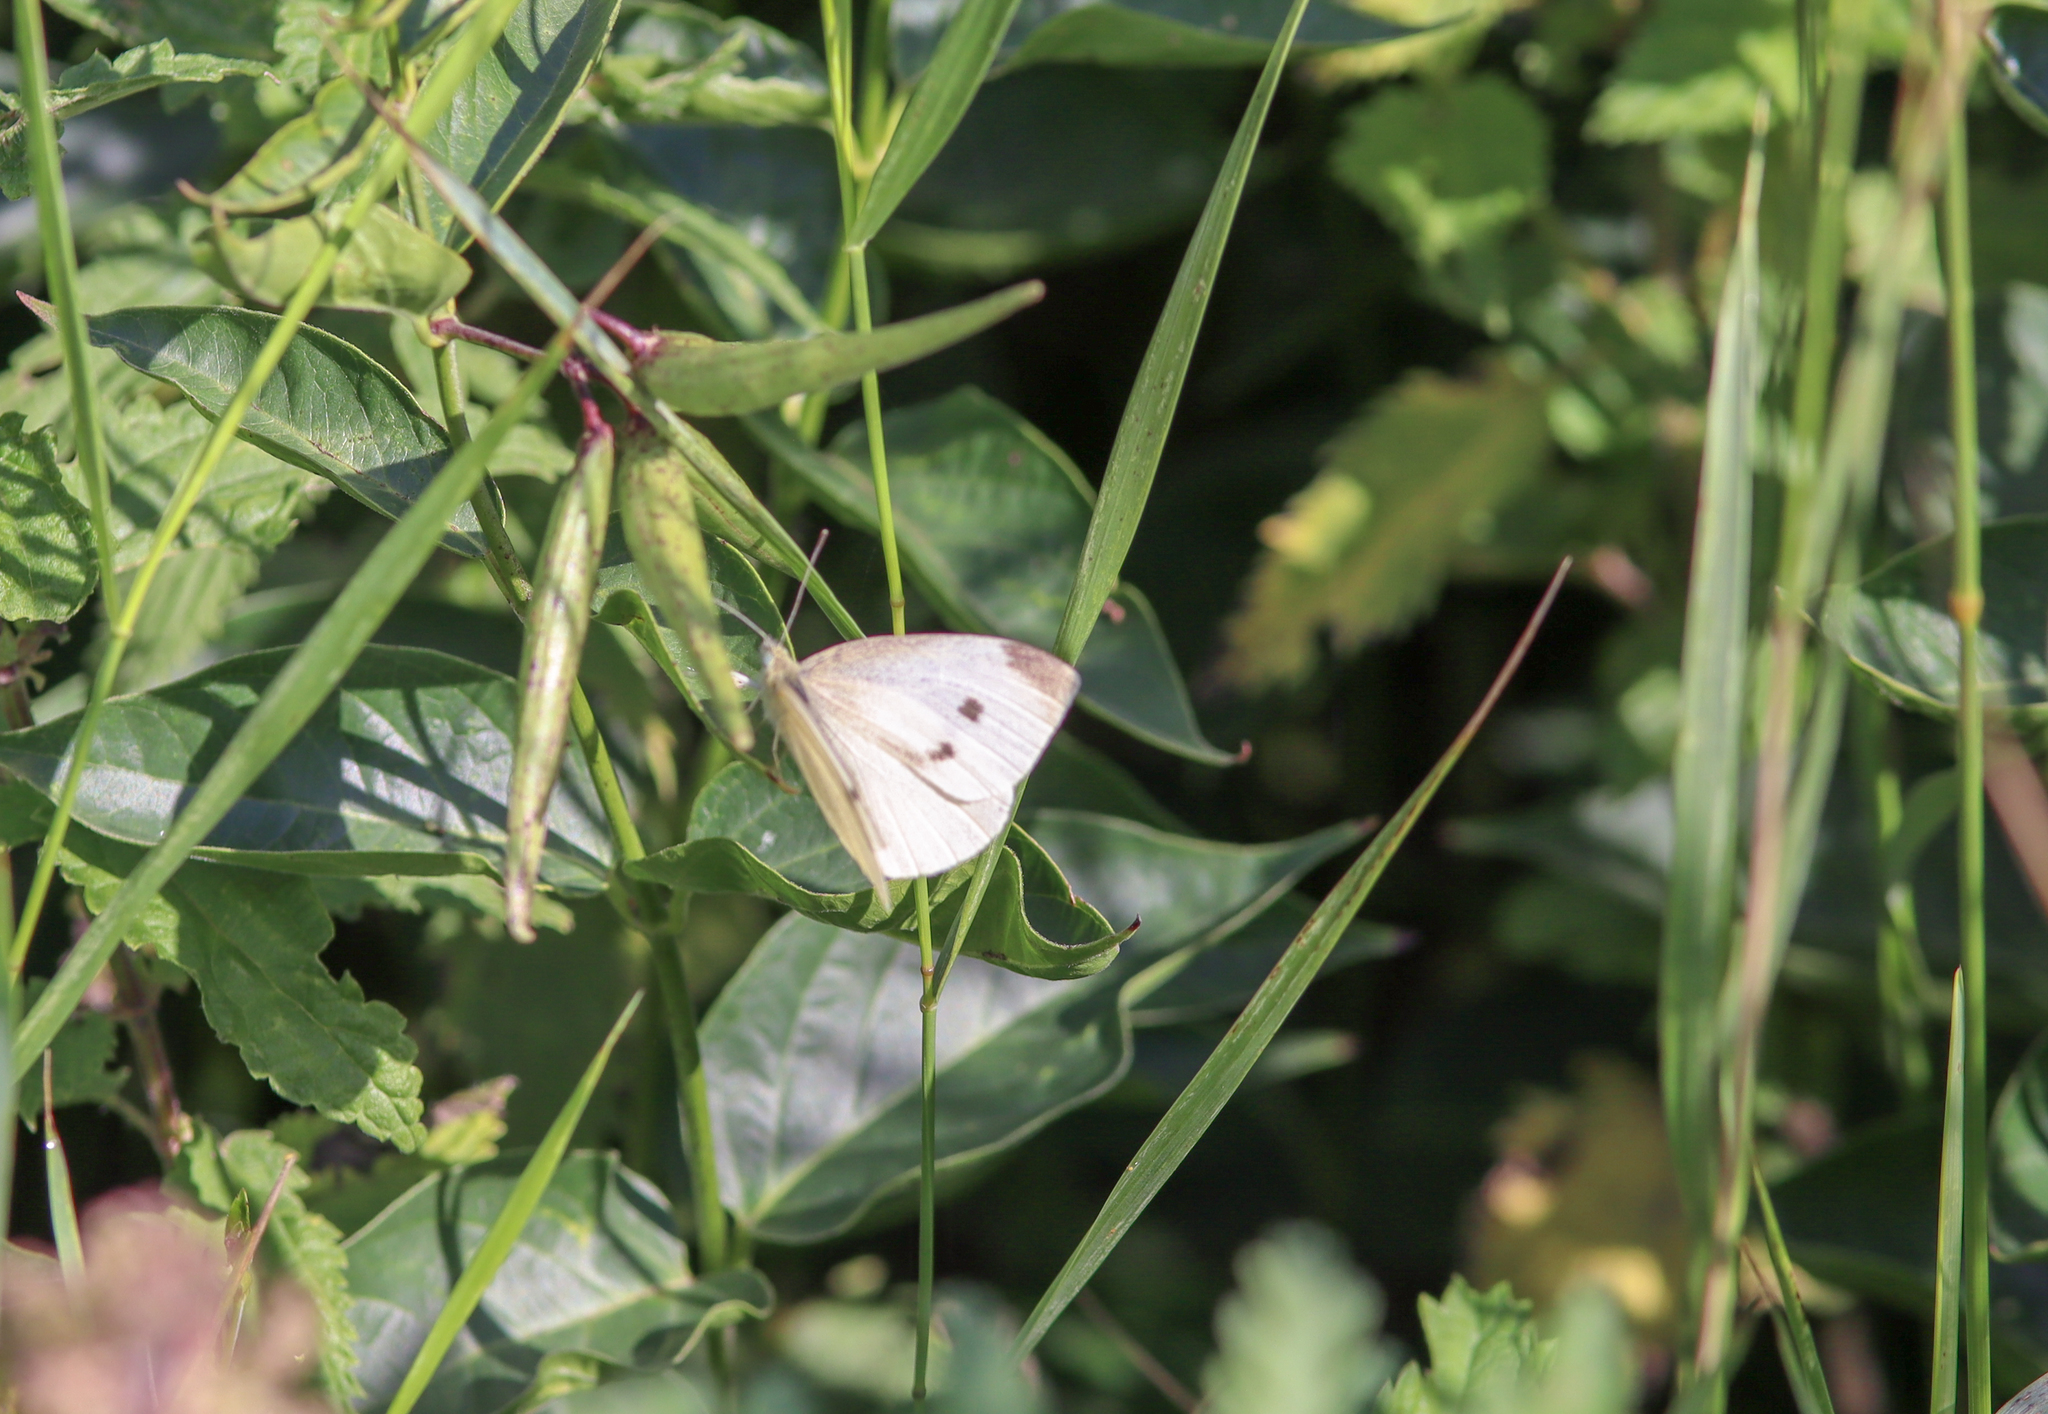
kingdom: Animalia
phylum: Arthropoda
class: Insecta
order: Lepidoptera
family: Pieridae
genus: Pieris
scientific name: Pieris rapae
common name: Small white
